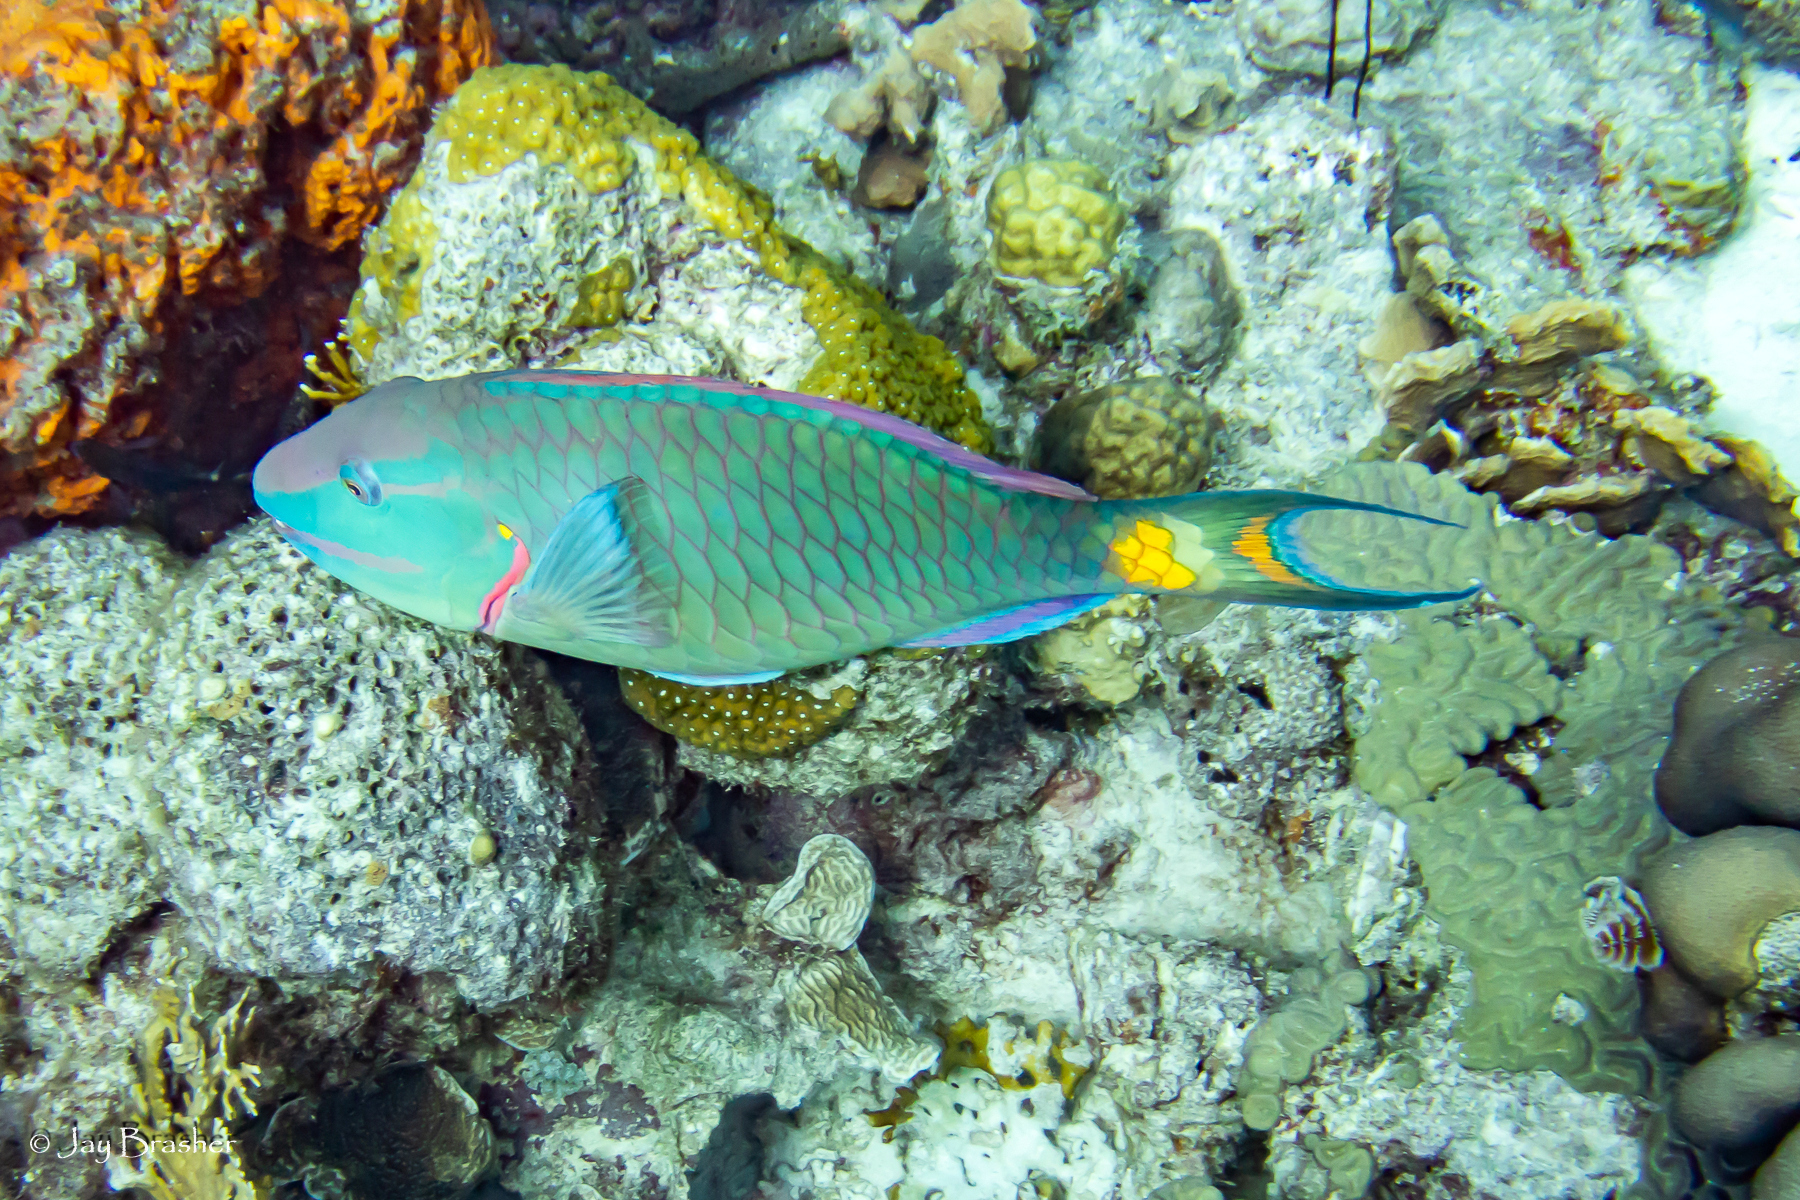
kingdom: Animalia
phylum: Chordata
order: Perciformes
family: Scaridae
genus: Sparisoma
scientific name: Sparisoma viride
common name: Stoplight parrotfish
